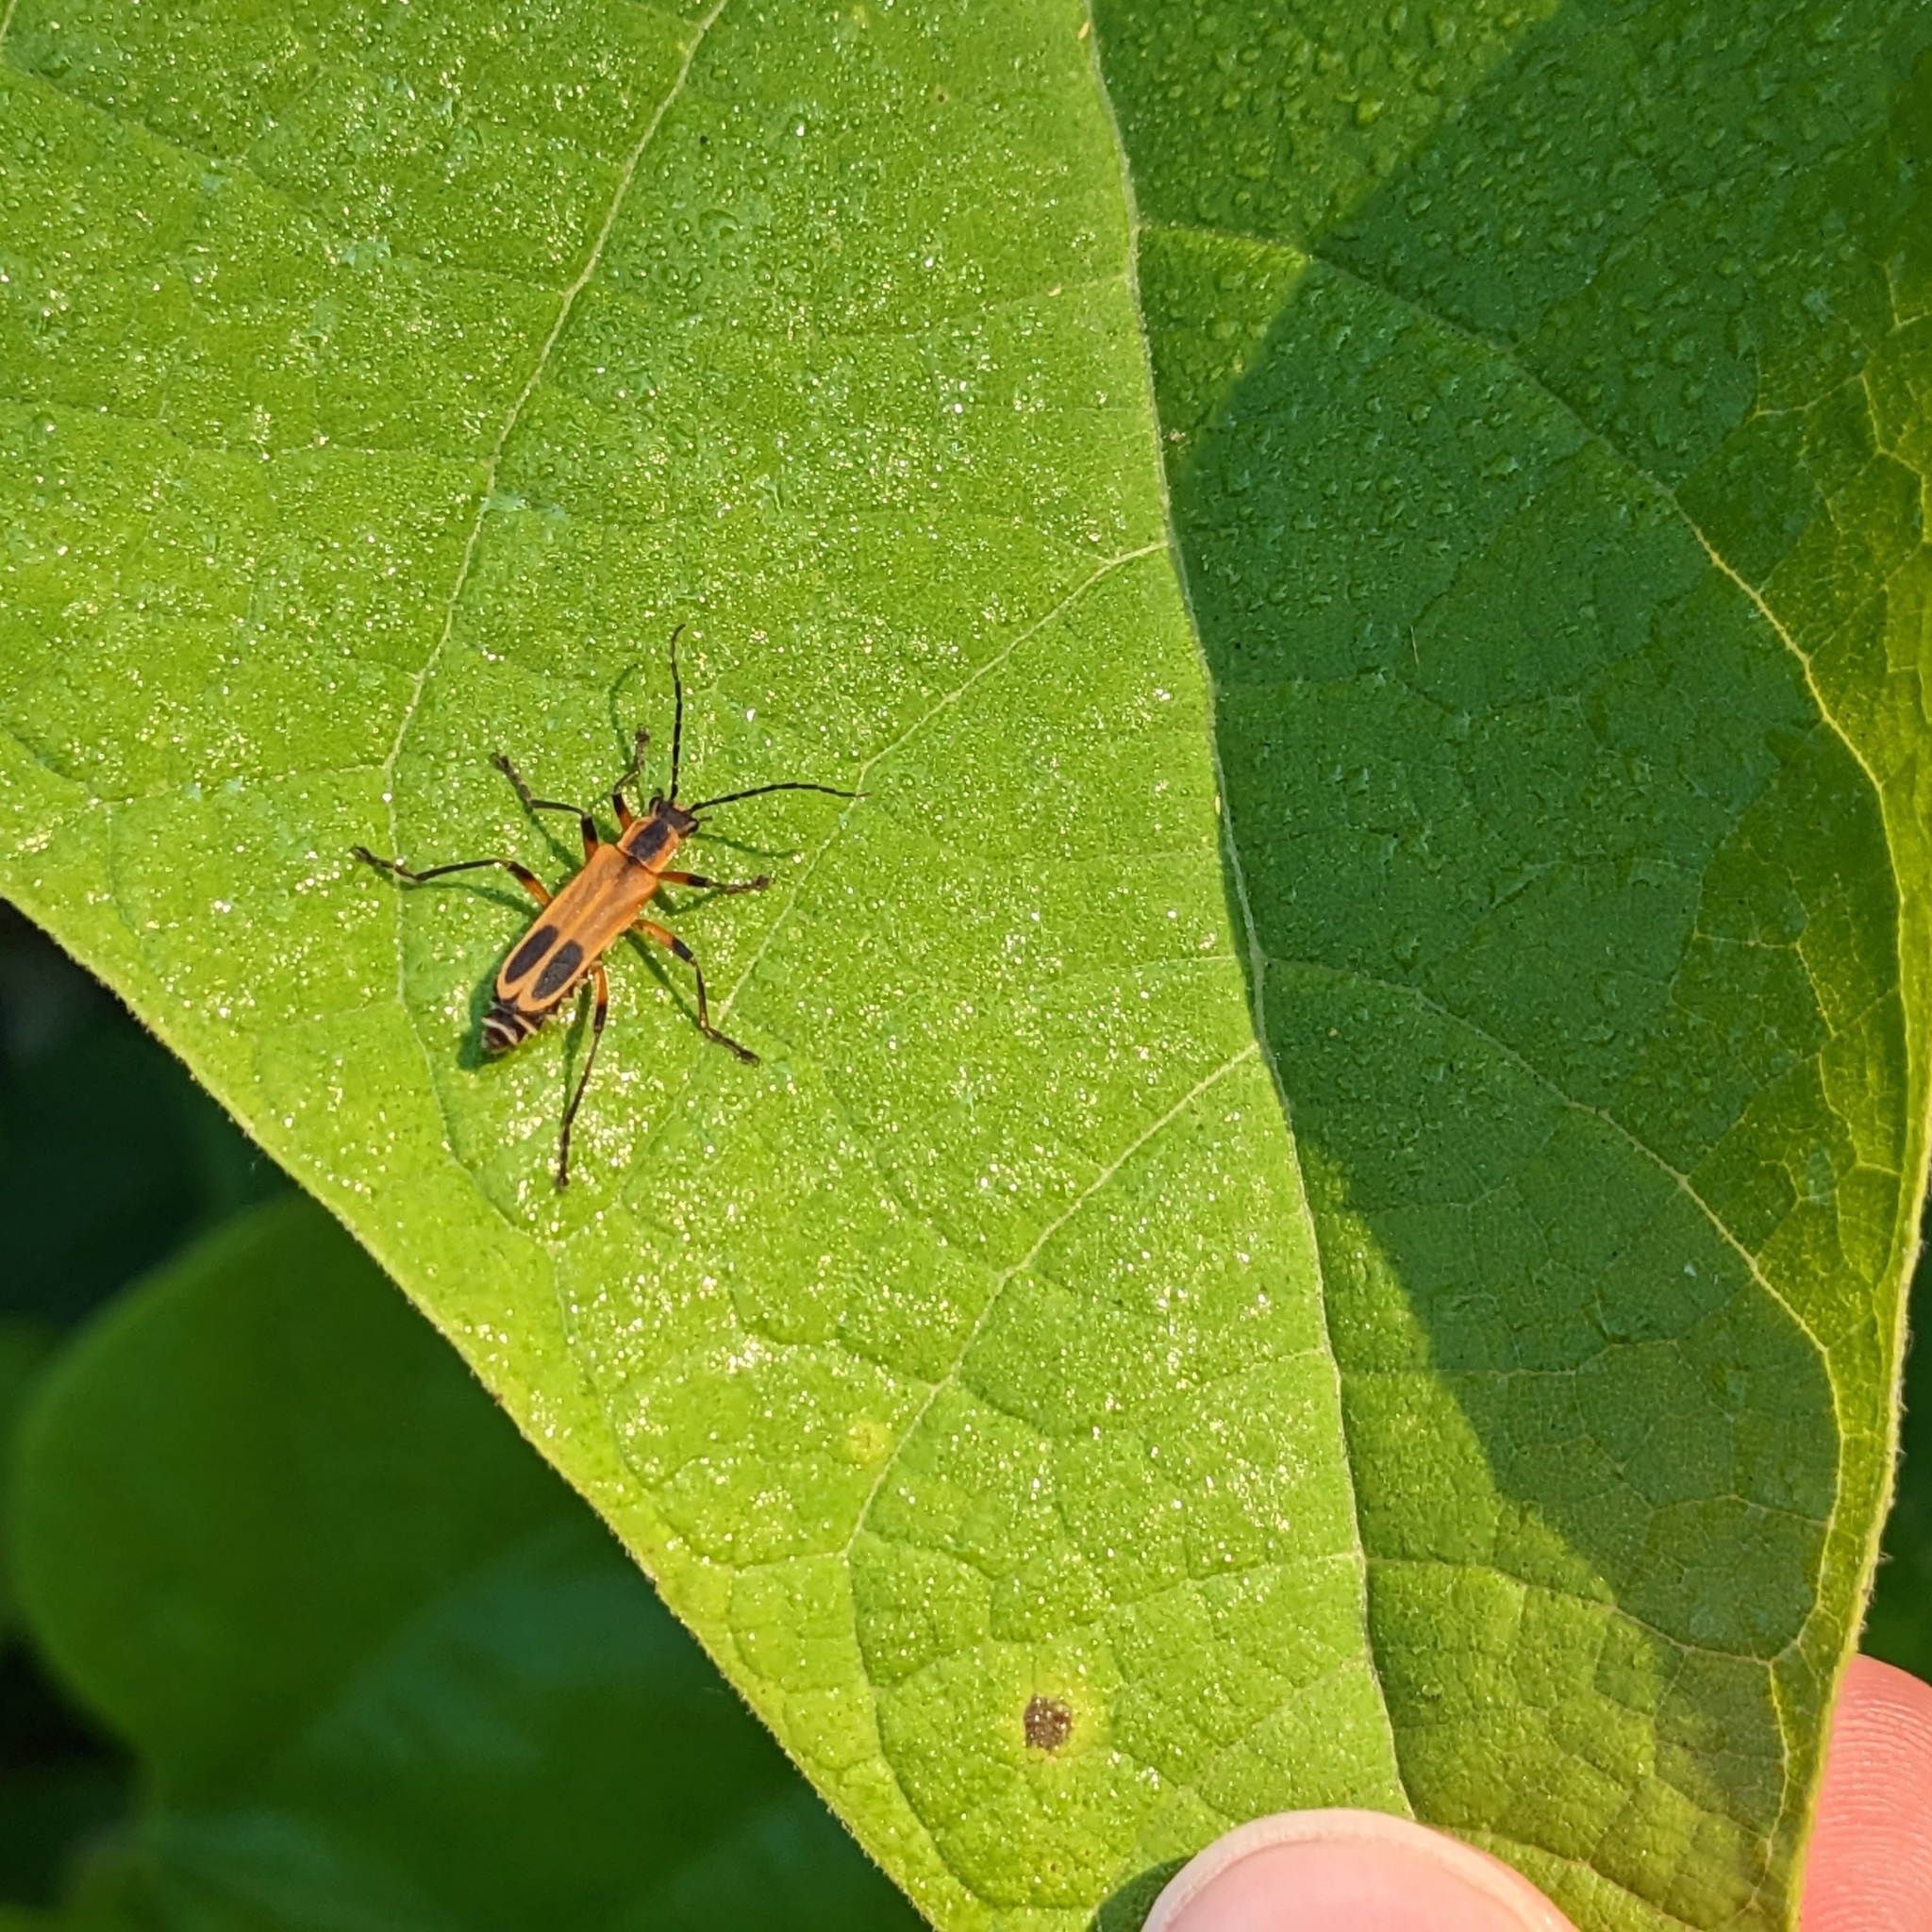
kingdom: Animalia
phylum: Arthropoda
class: Insecta
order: Coleoptera
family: Cantharidae
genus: Chauliognathus
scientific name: Chauliognathus marginatus
